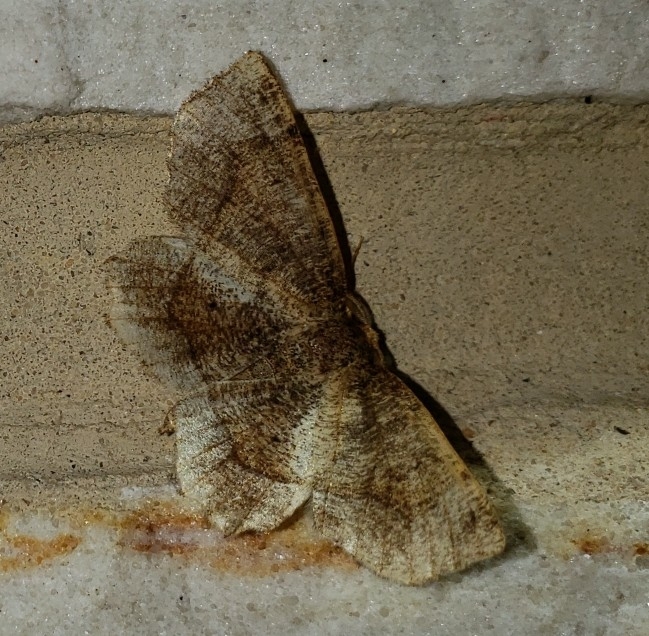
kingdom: Animalia
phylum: Arthropoda
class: Insecta
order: Lepidoptera
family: Geometridae
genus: Metarranthis
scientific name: Metarranthis hypochraria
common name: Common metarranthis
